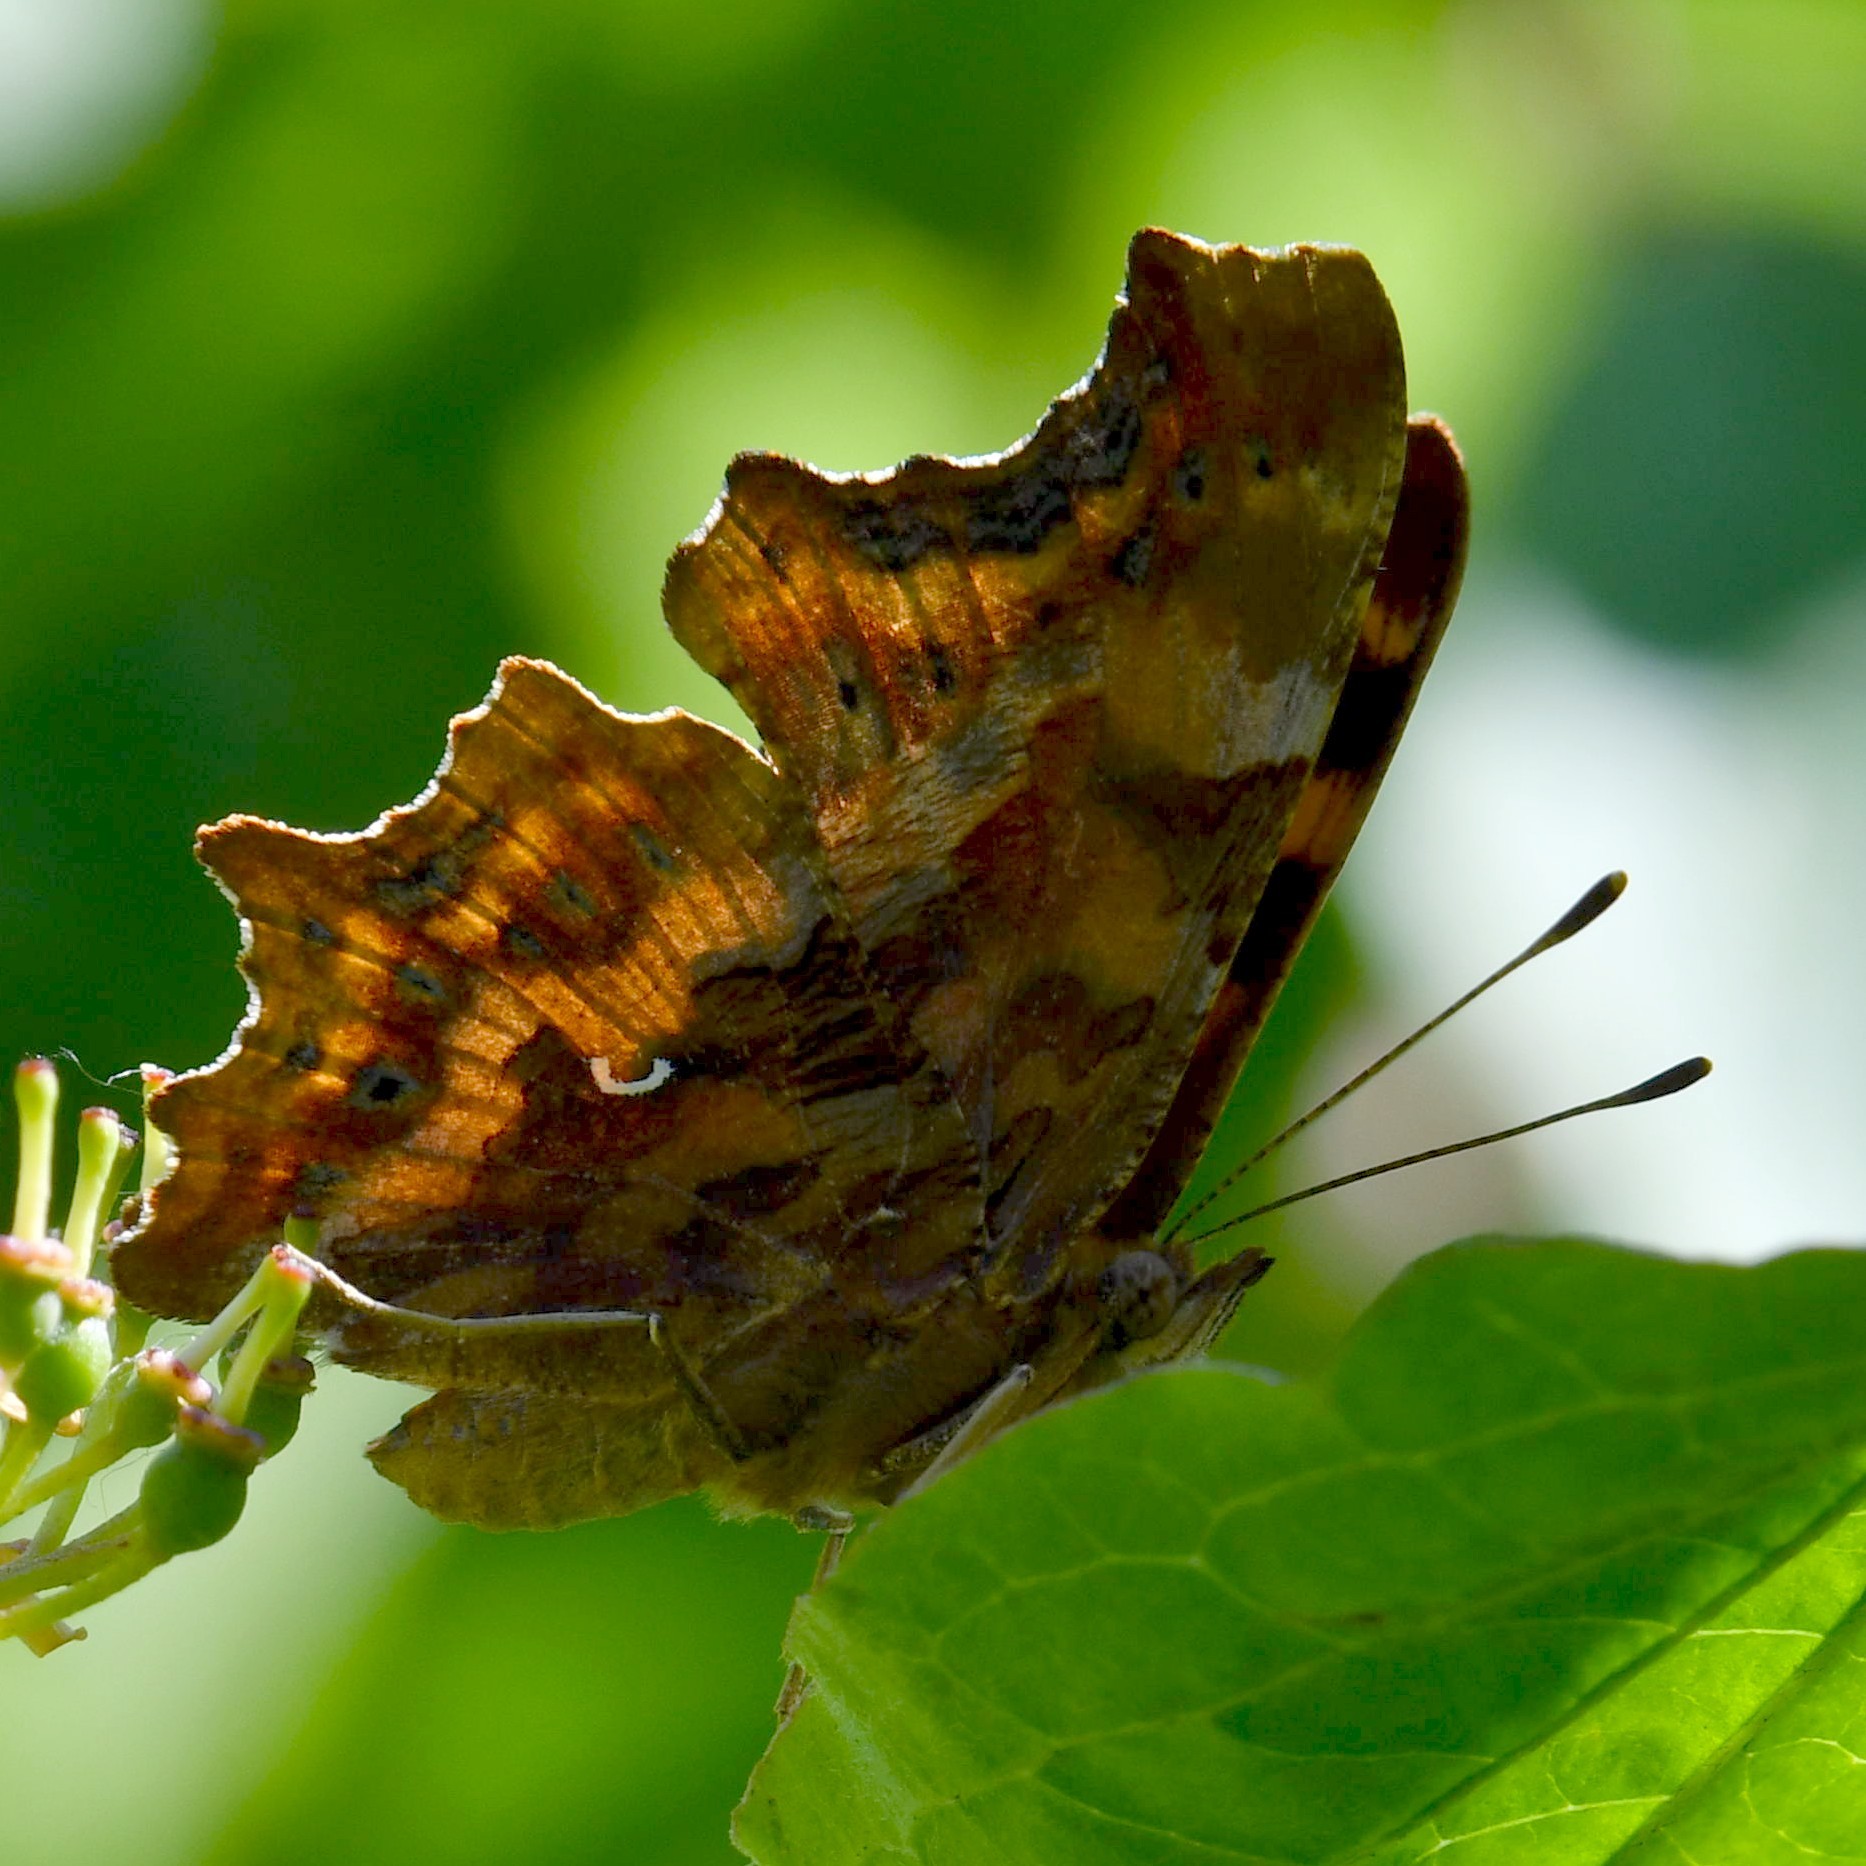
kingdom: Animalia
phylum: Arthropoda
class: Insecta
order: Lepidoptera
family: Nymphalidae
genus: Polygonia
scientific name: Polygonia c-album
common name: Comma
